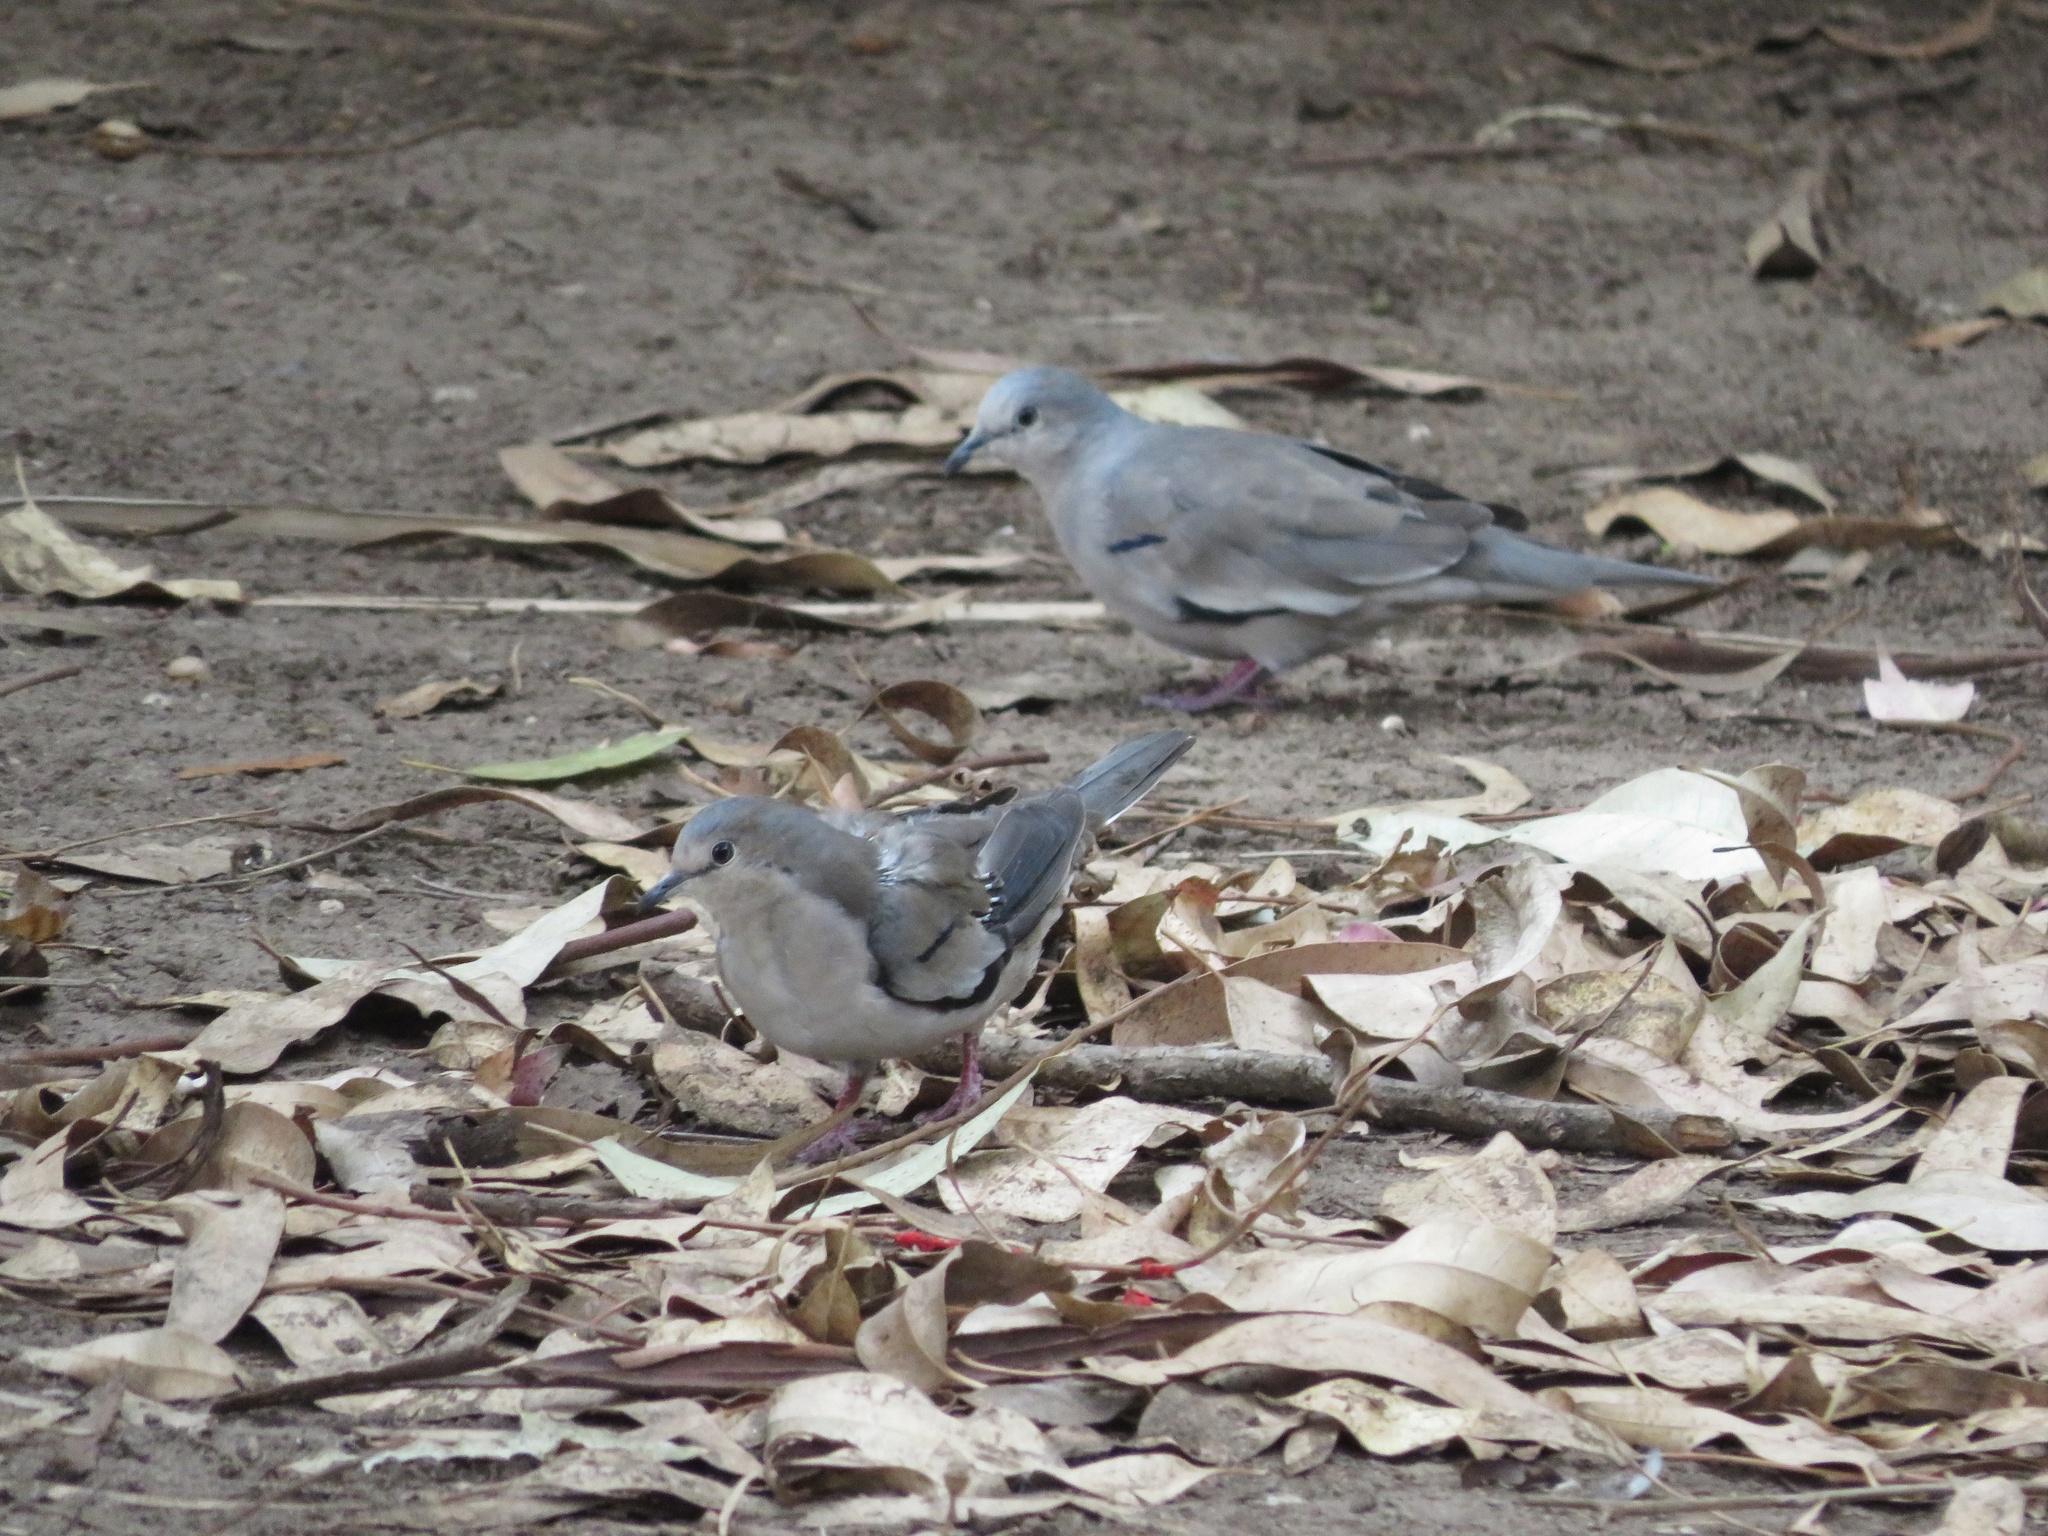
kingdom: Animalia
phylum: Chordata
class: Aves
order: Columbiformes
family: Columbidae
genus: Columbina
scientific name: Columbina picui
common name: Picui ground dove
